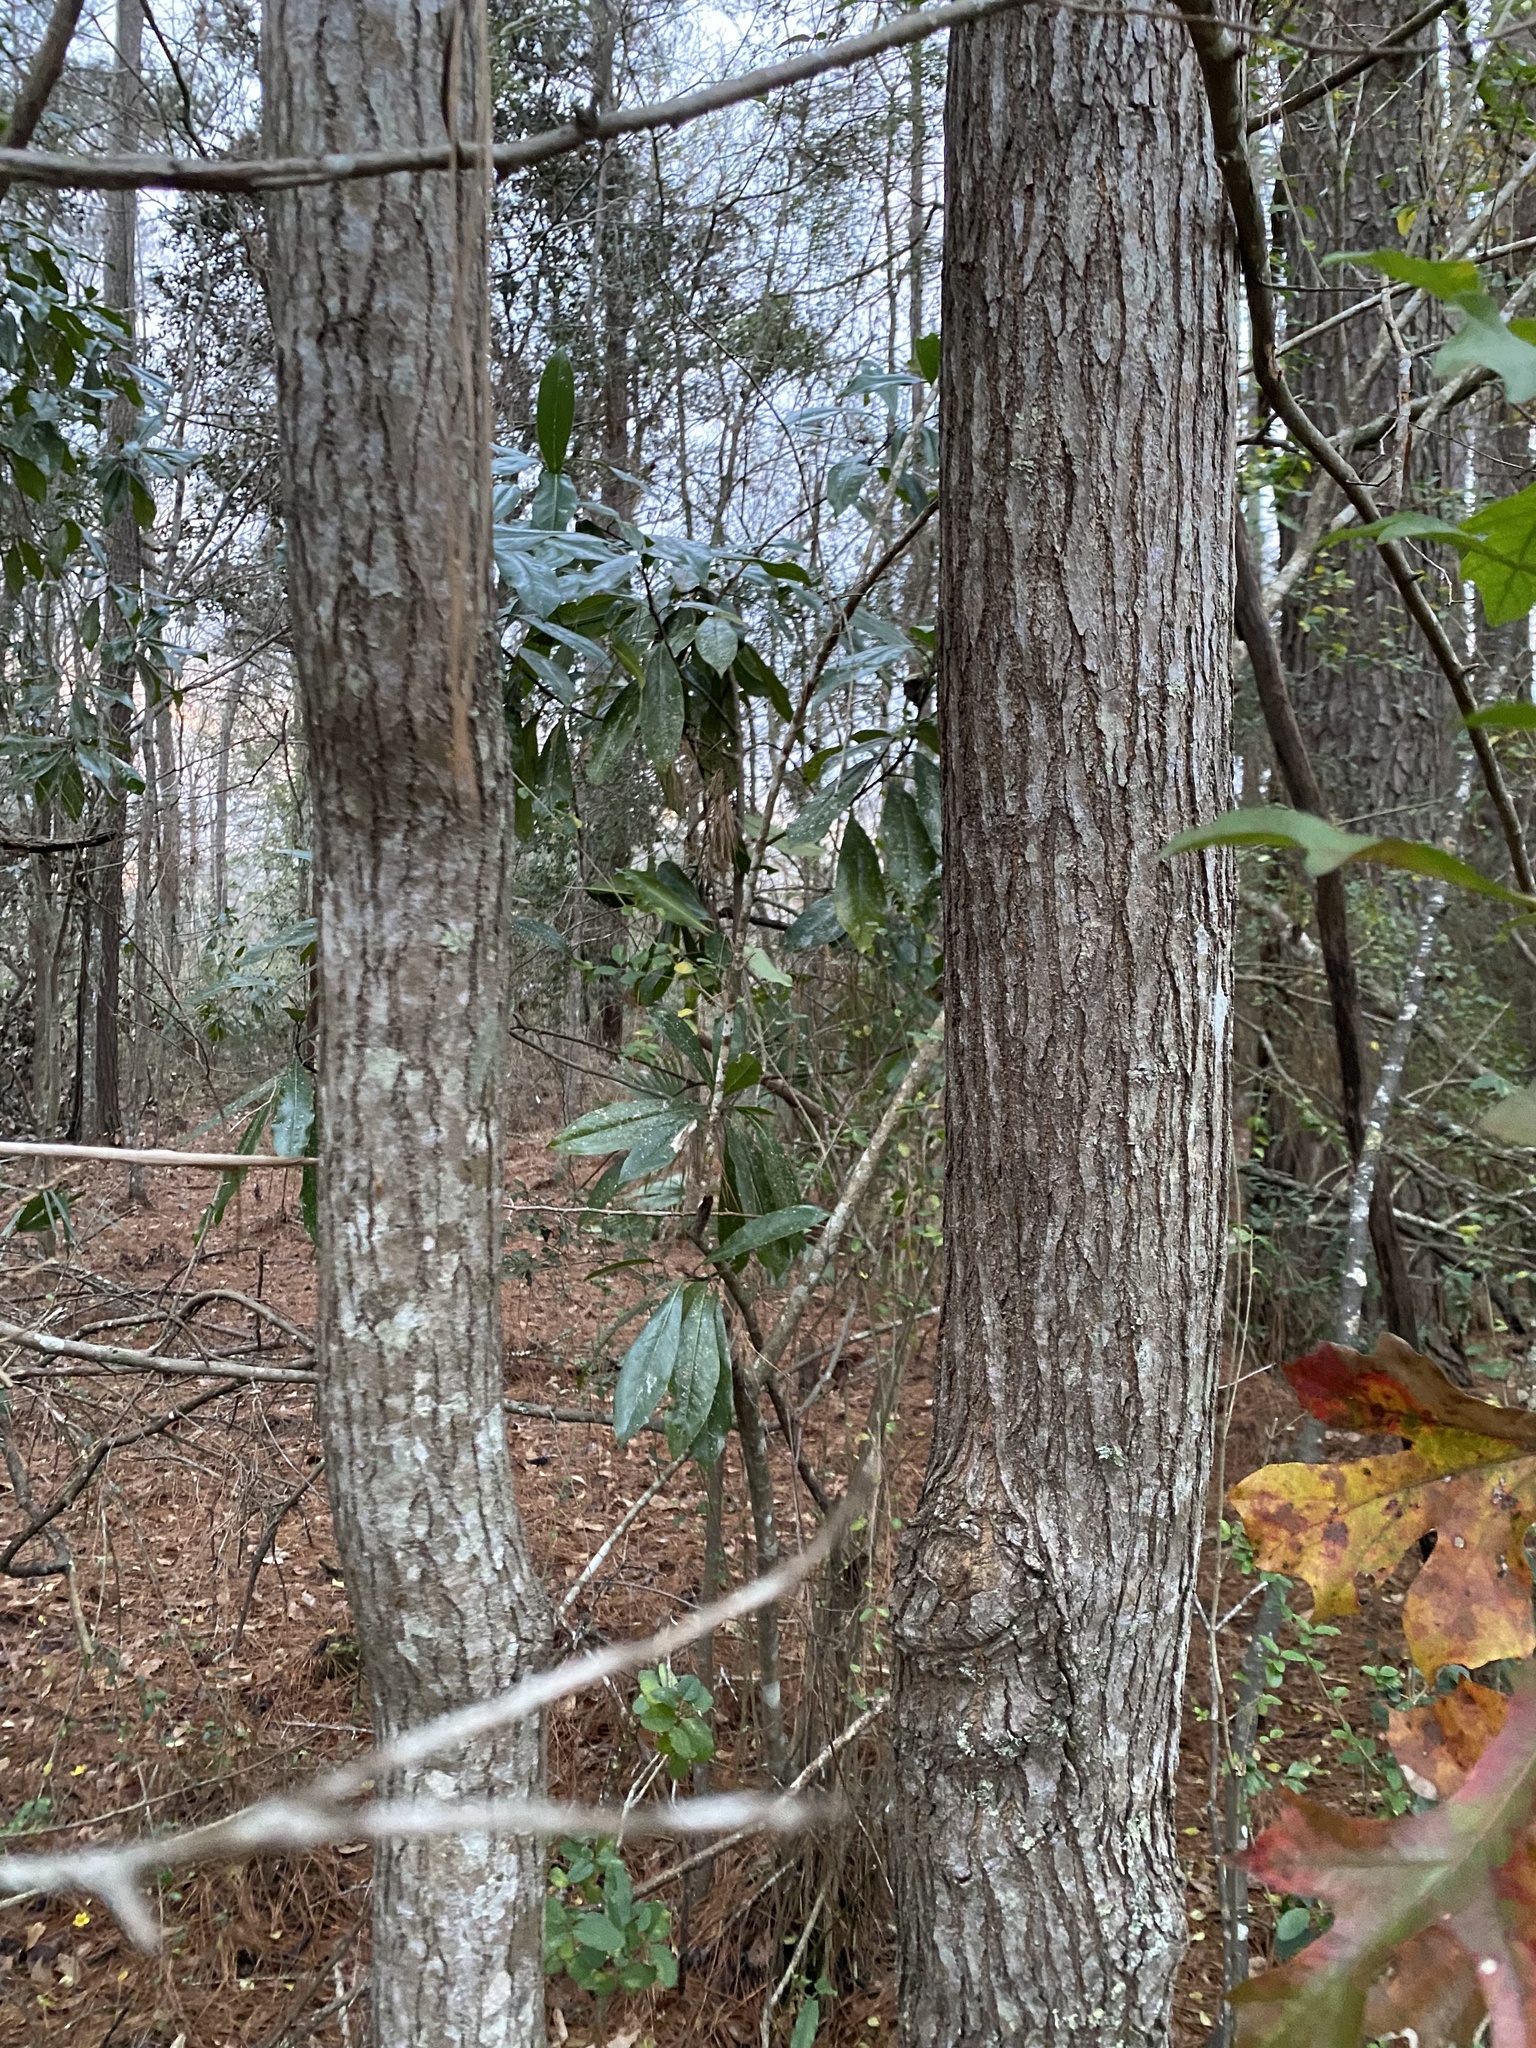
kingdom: Plantae
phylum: Tracheophyta
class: Magnoliopsida
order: Malpighiales
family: Euphorbiaceae
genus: Triadica
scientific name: Triadica sebifera
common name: Chinese tallow
